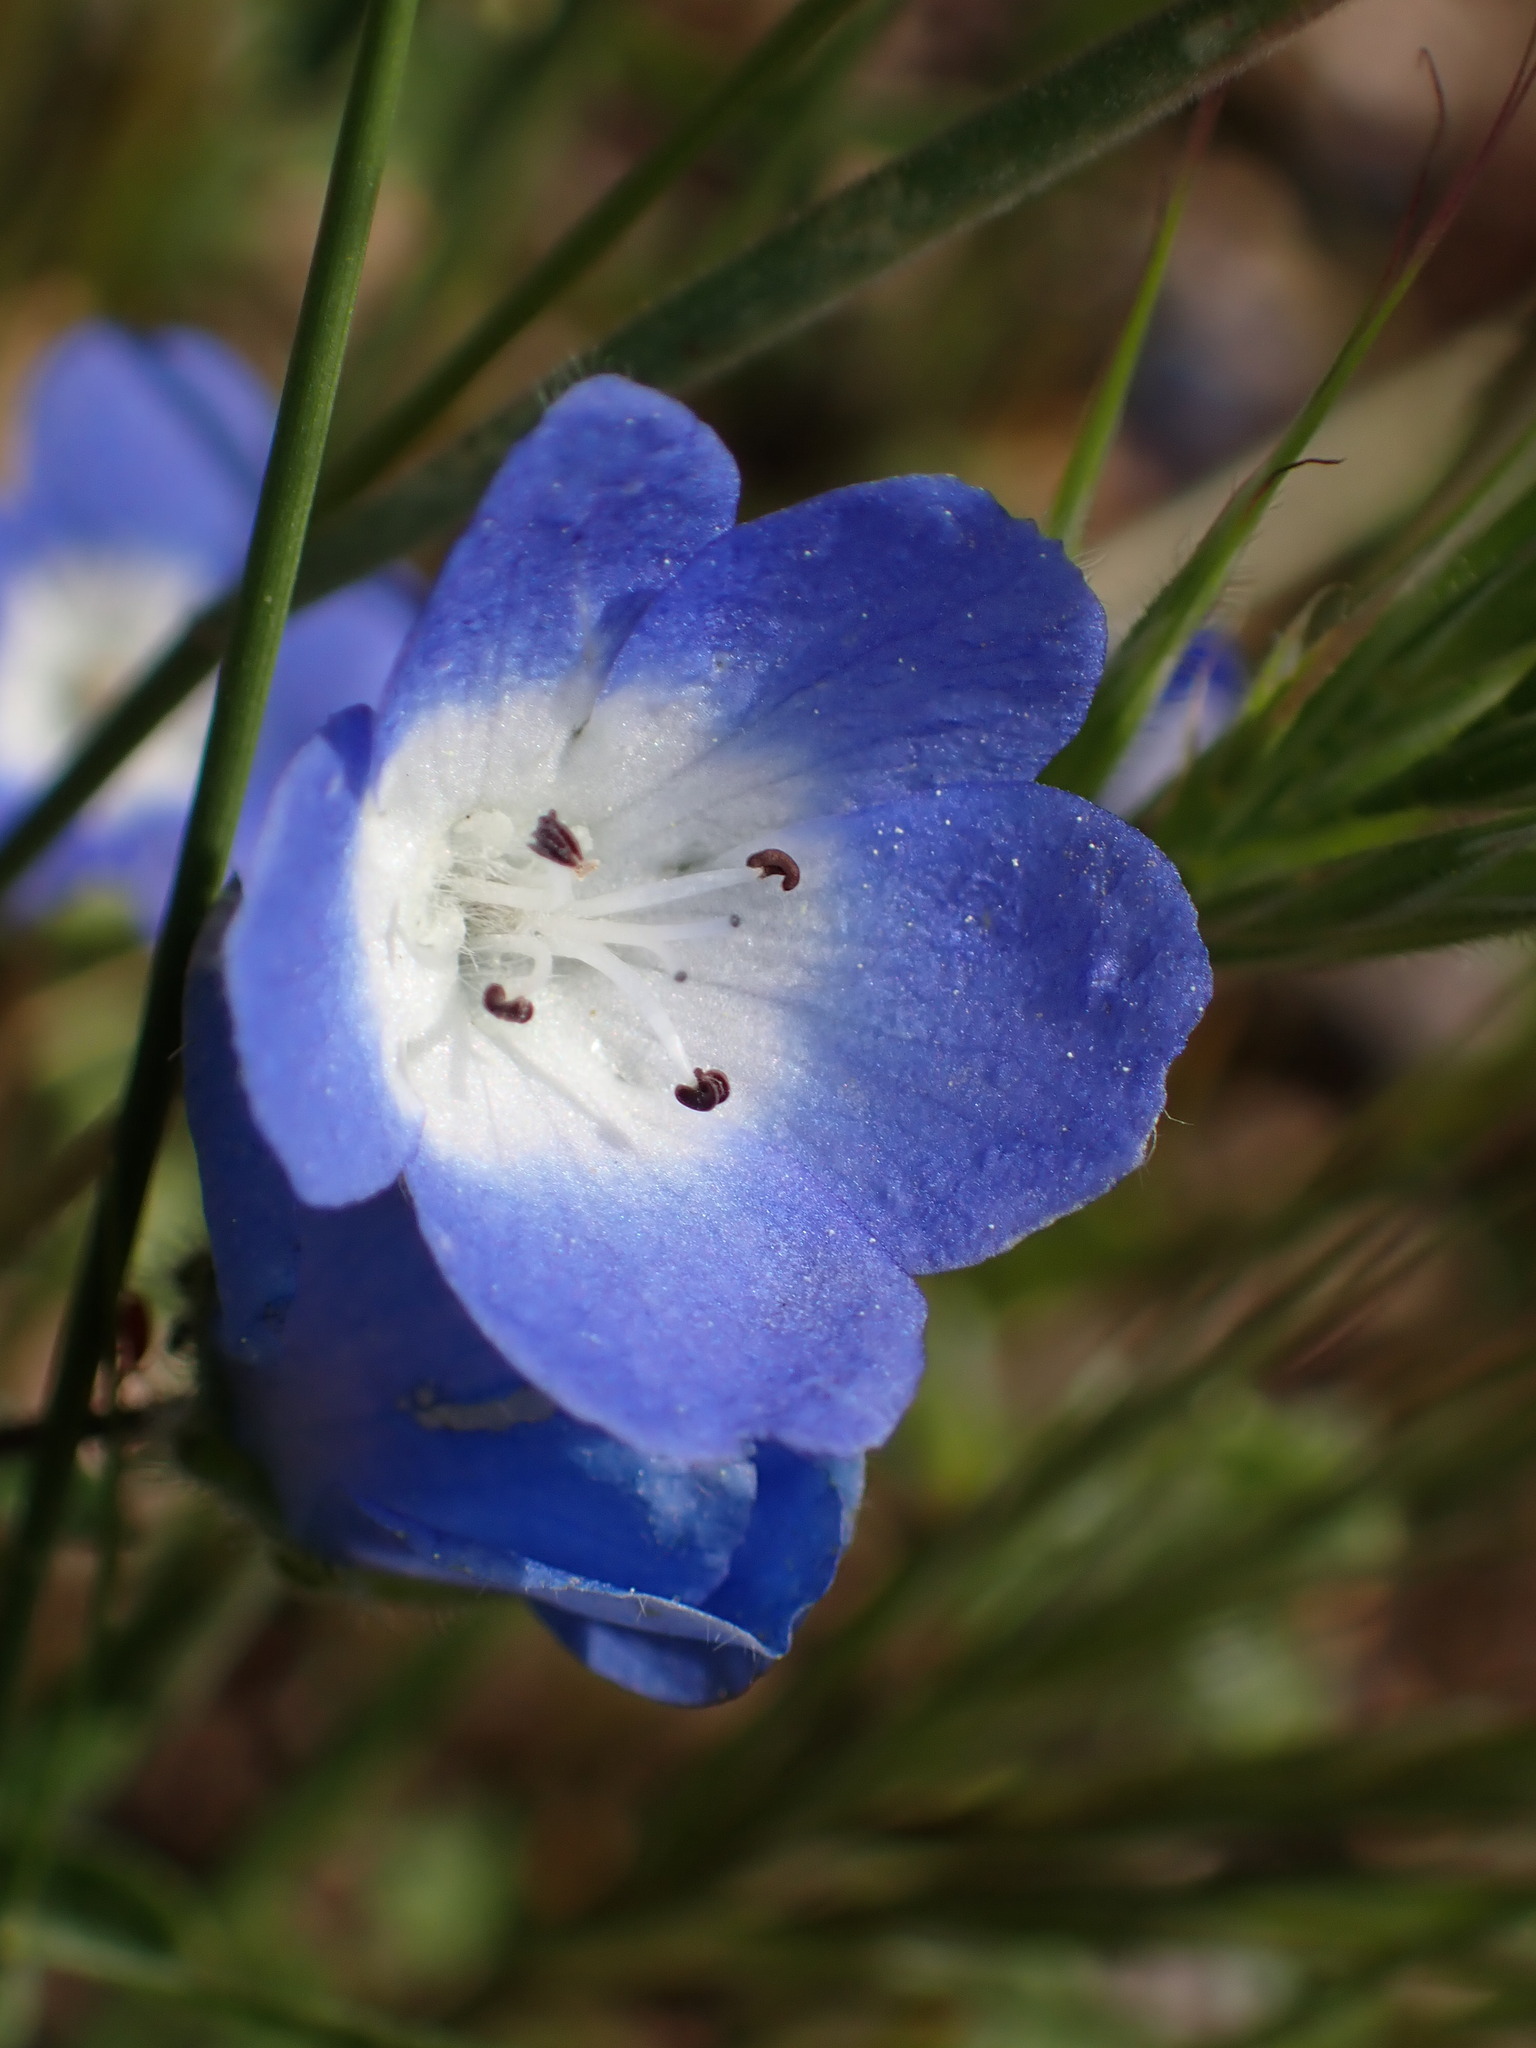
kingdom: Plantae
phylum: Tracheophyta
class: Magnoliopsida
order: Boraginales
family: Hydrophyllaceae
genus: Nemophila
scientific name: Nemophila menziesii
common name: Baby's-blue-eyes
